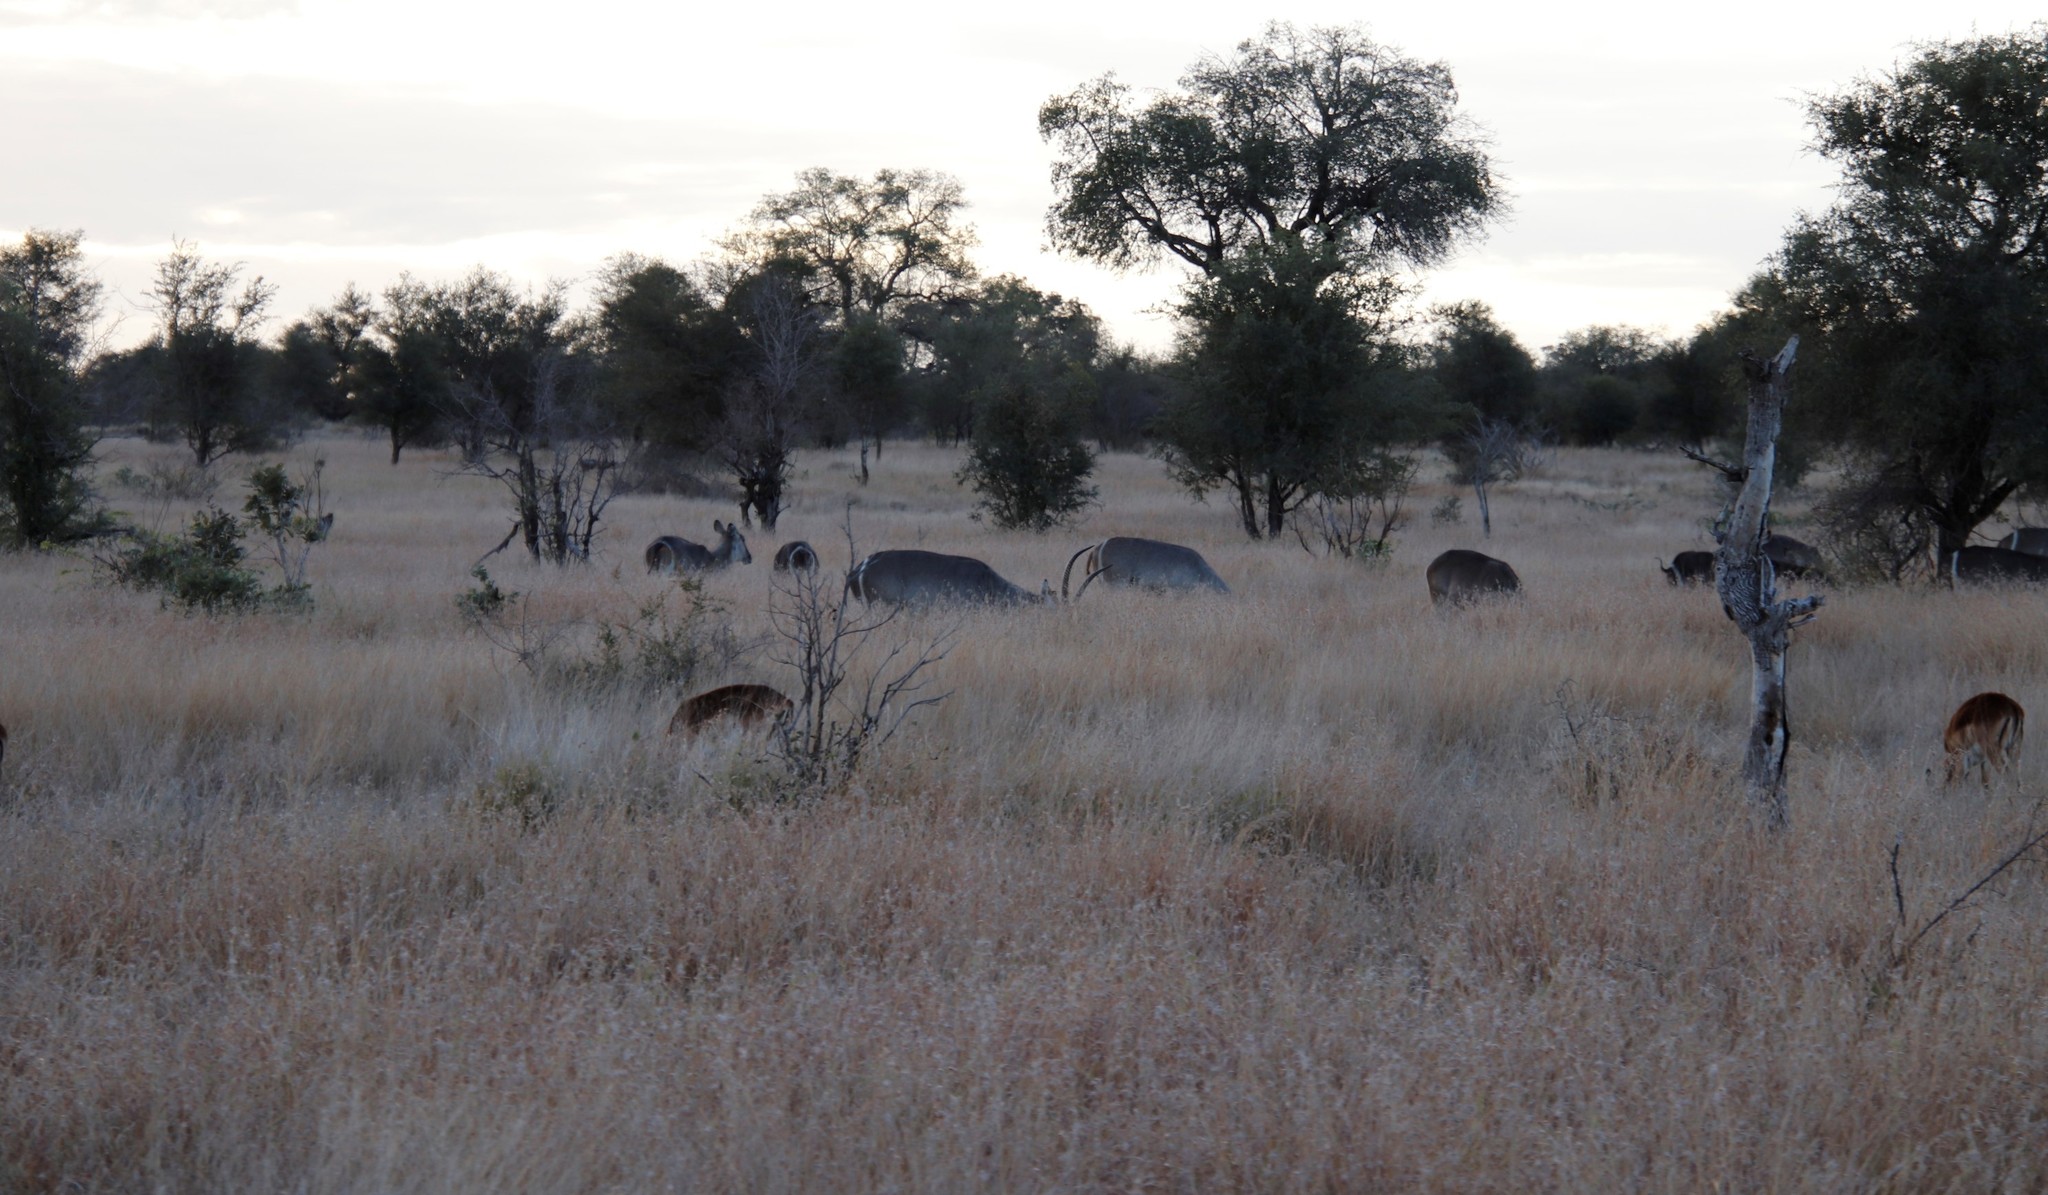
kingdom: Animalia
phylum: Chordata
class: Mammalia
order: Artiodactyla
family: Bovidae
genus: Aepyceros
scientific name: Aepyceros melampus
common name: Impala
